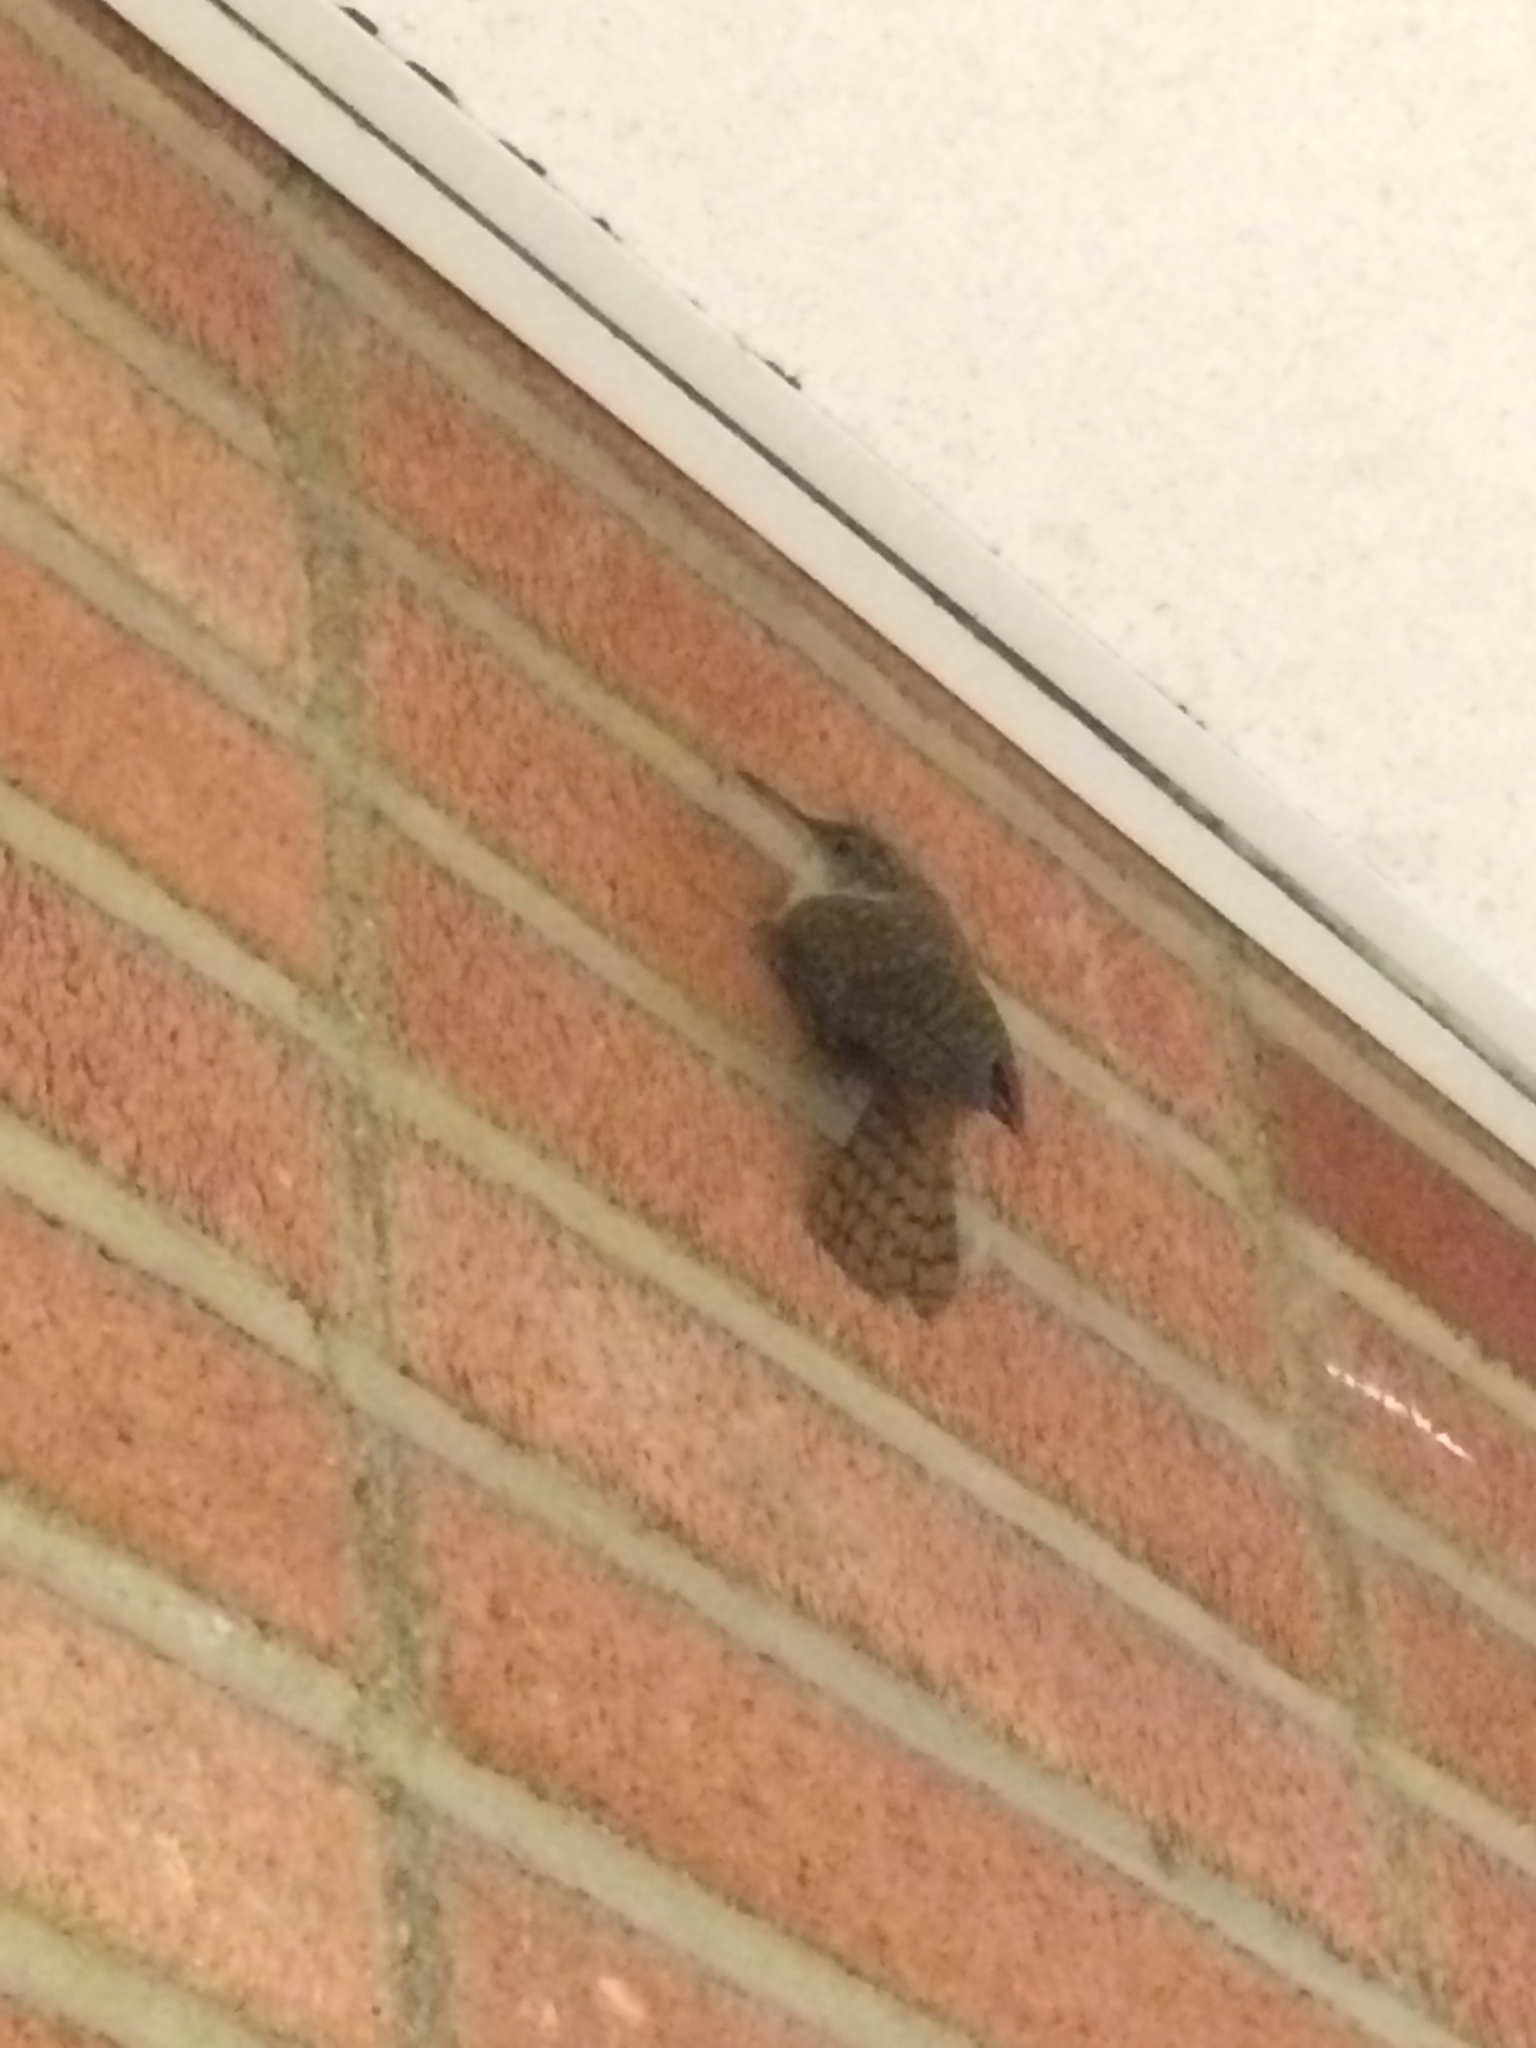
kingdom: Animalia
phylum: Chordata
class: Aves
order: Passeriformes
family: Troglodytidae
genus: Catherpes
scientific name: Catherpes mexicanus
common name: Canyon wren
